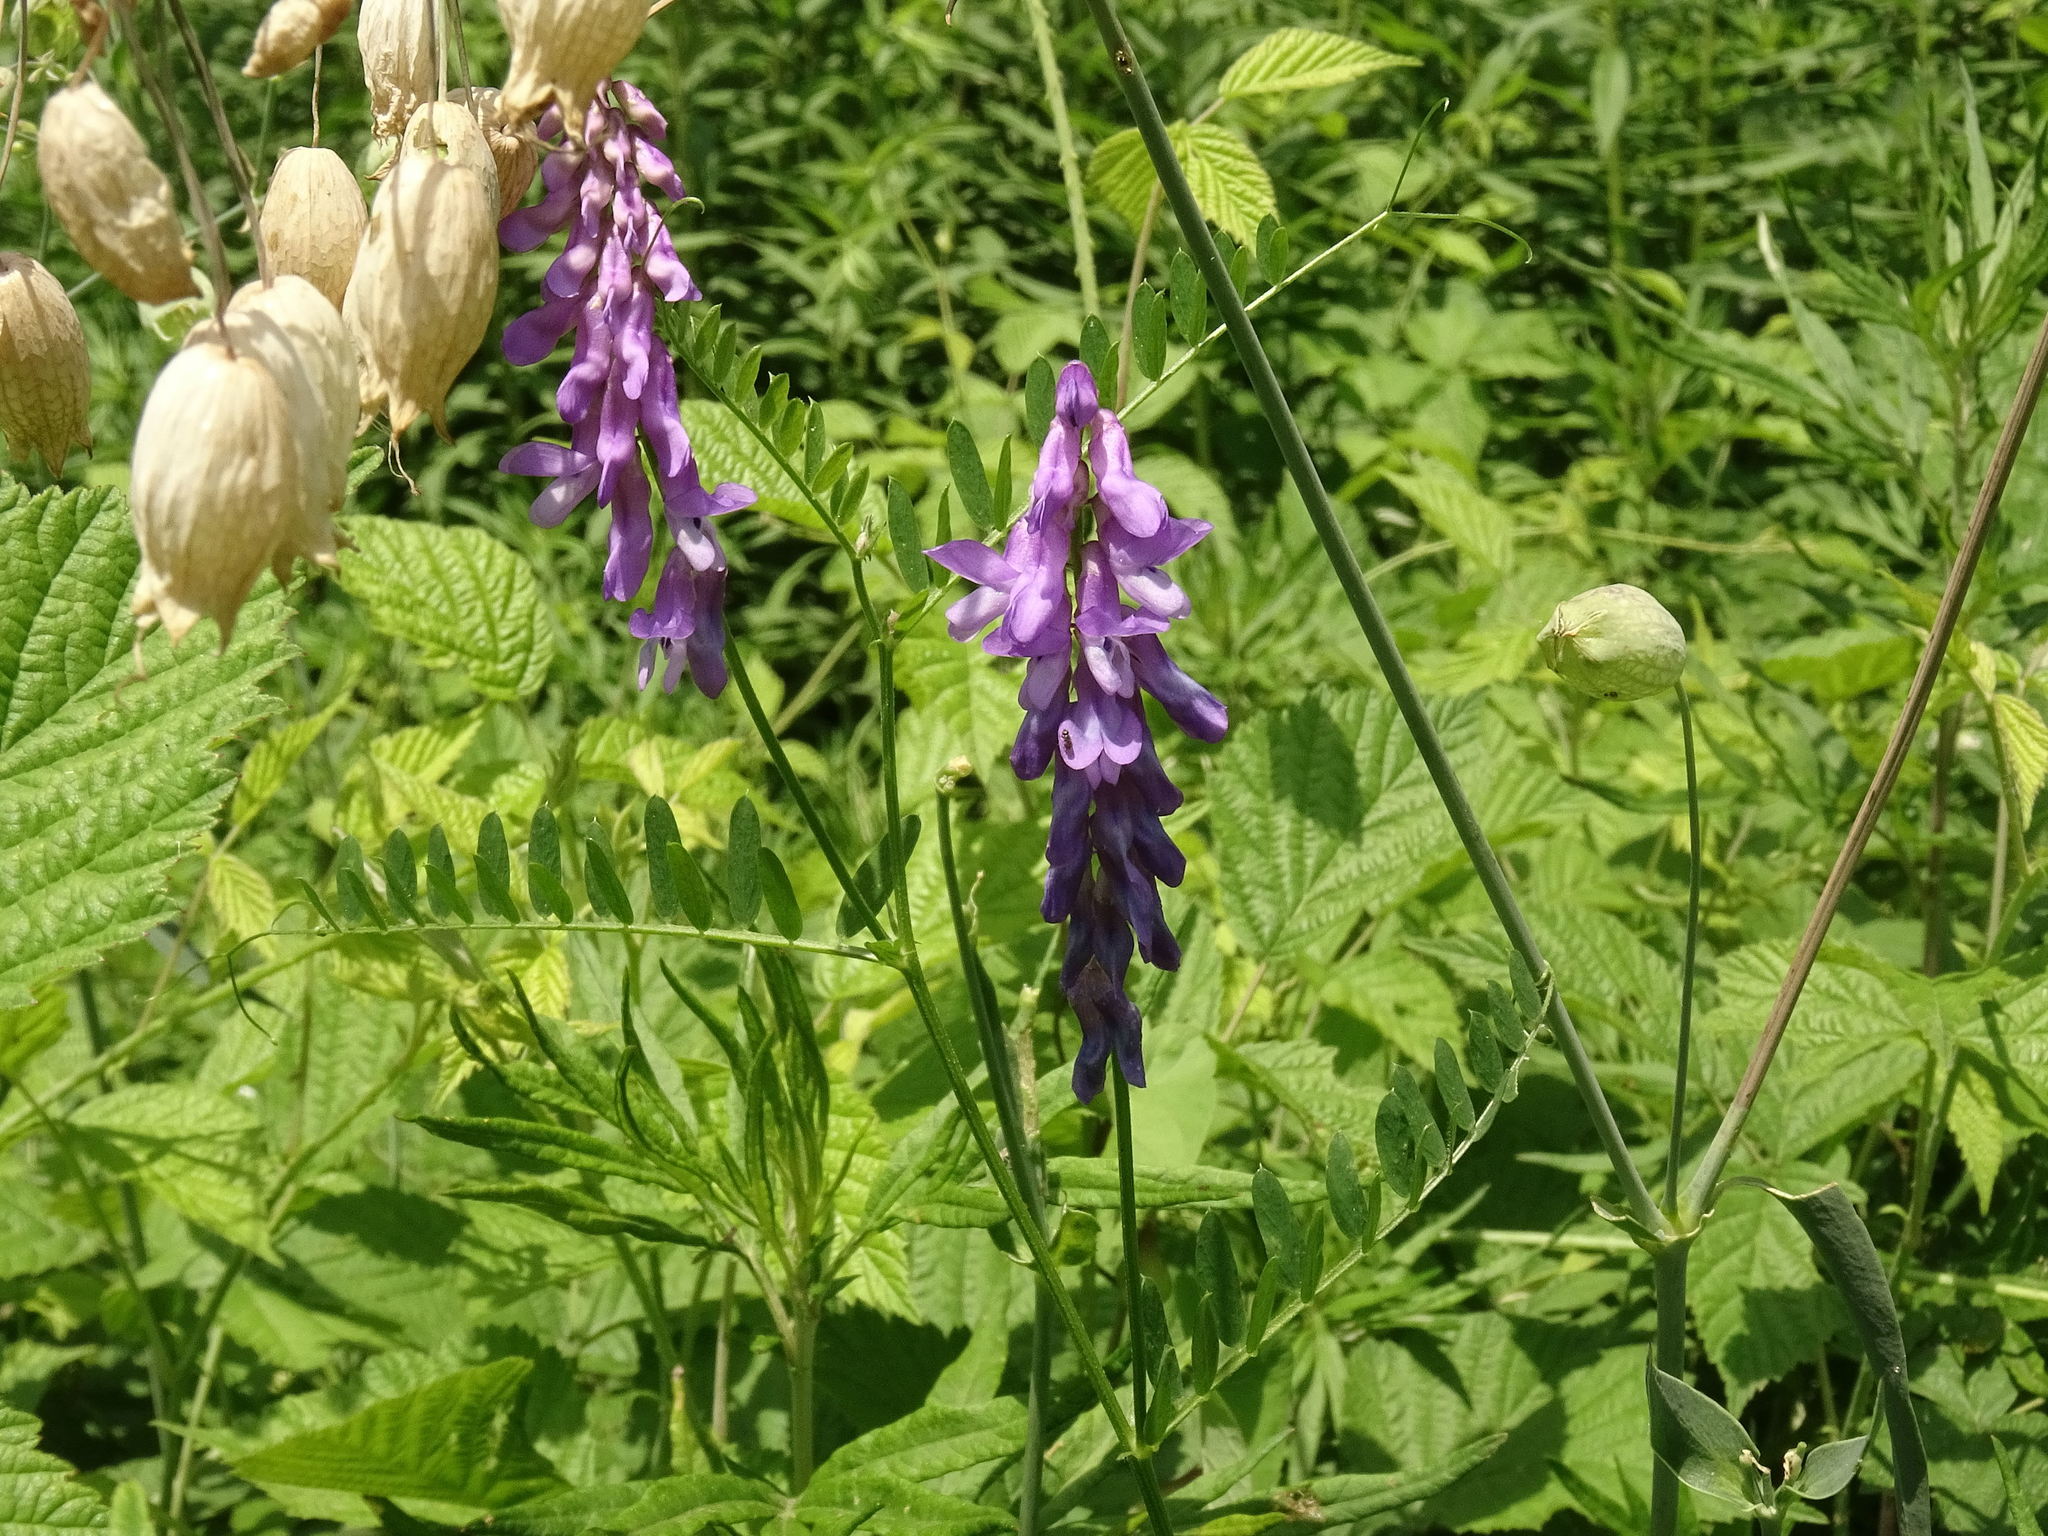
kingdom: Plantae
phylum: Tracheophyta
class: Magnoliopsida
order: Fabales
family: Fabaceae
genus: Vicia
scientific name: Vicia cracca
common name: Bird vetch
